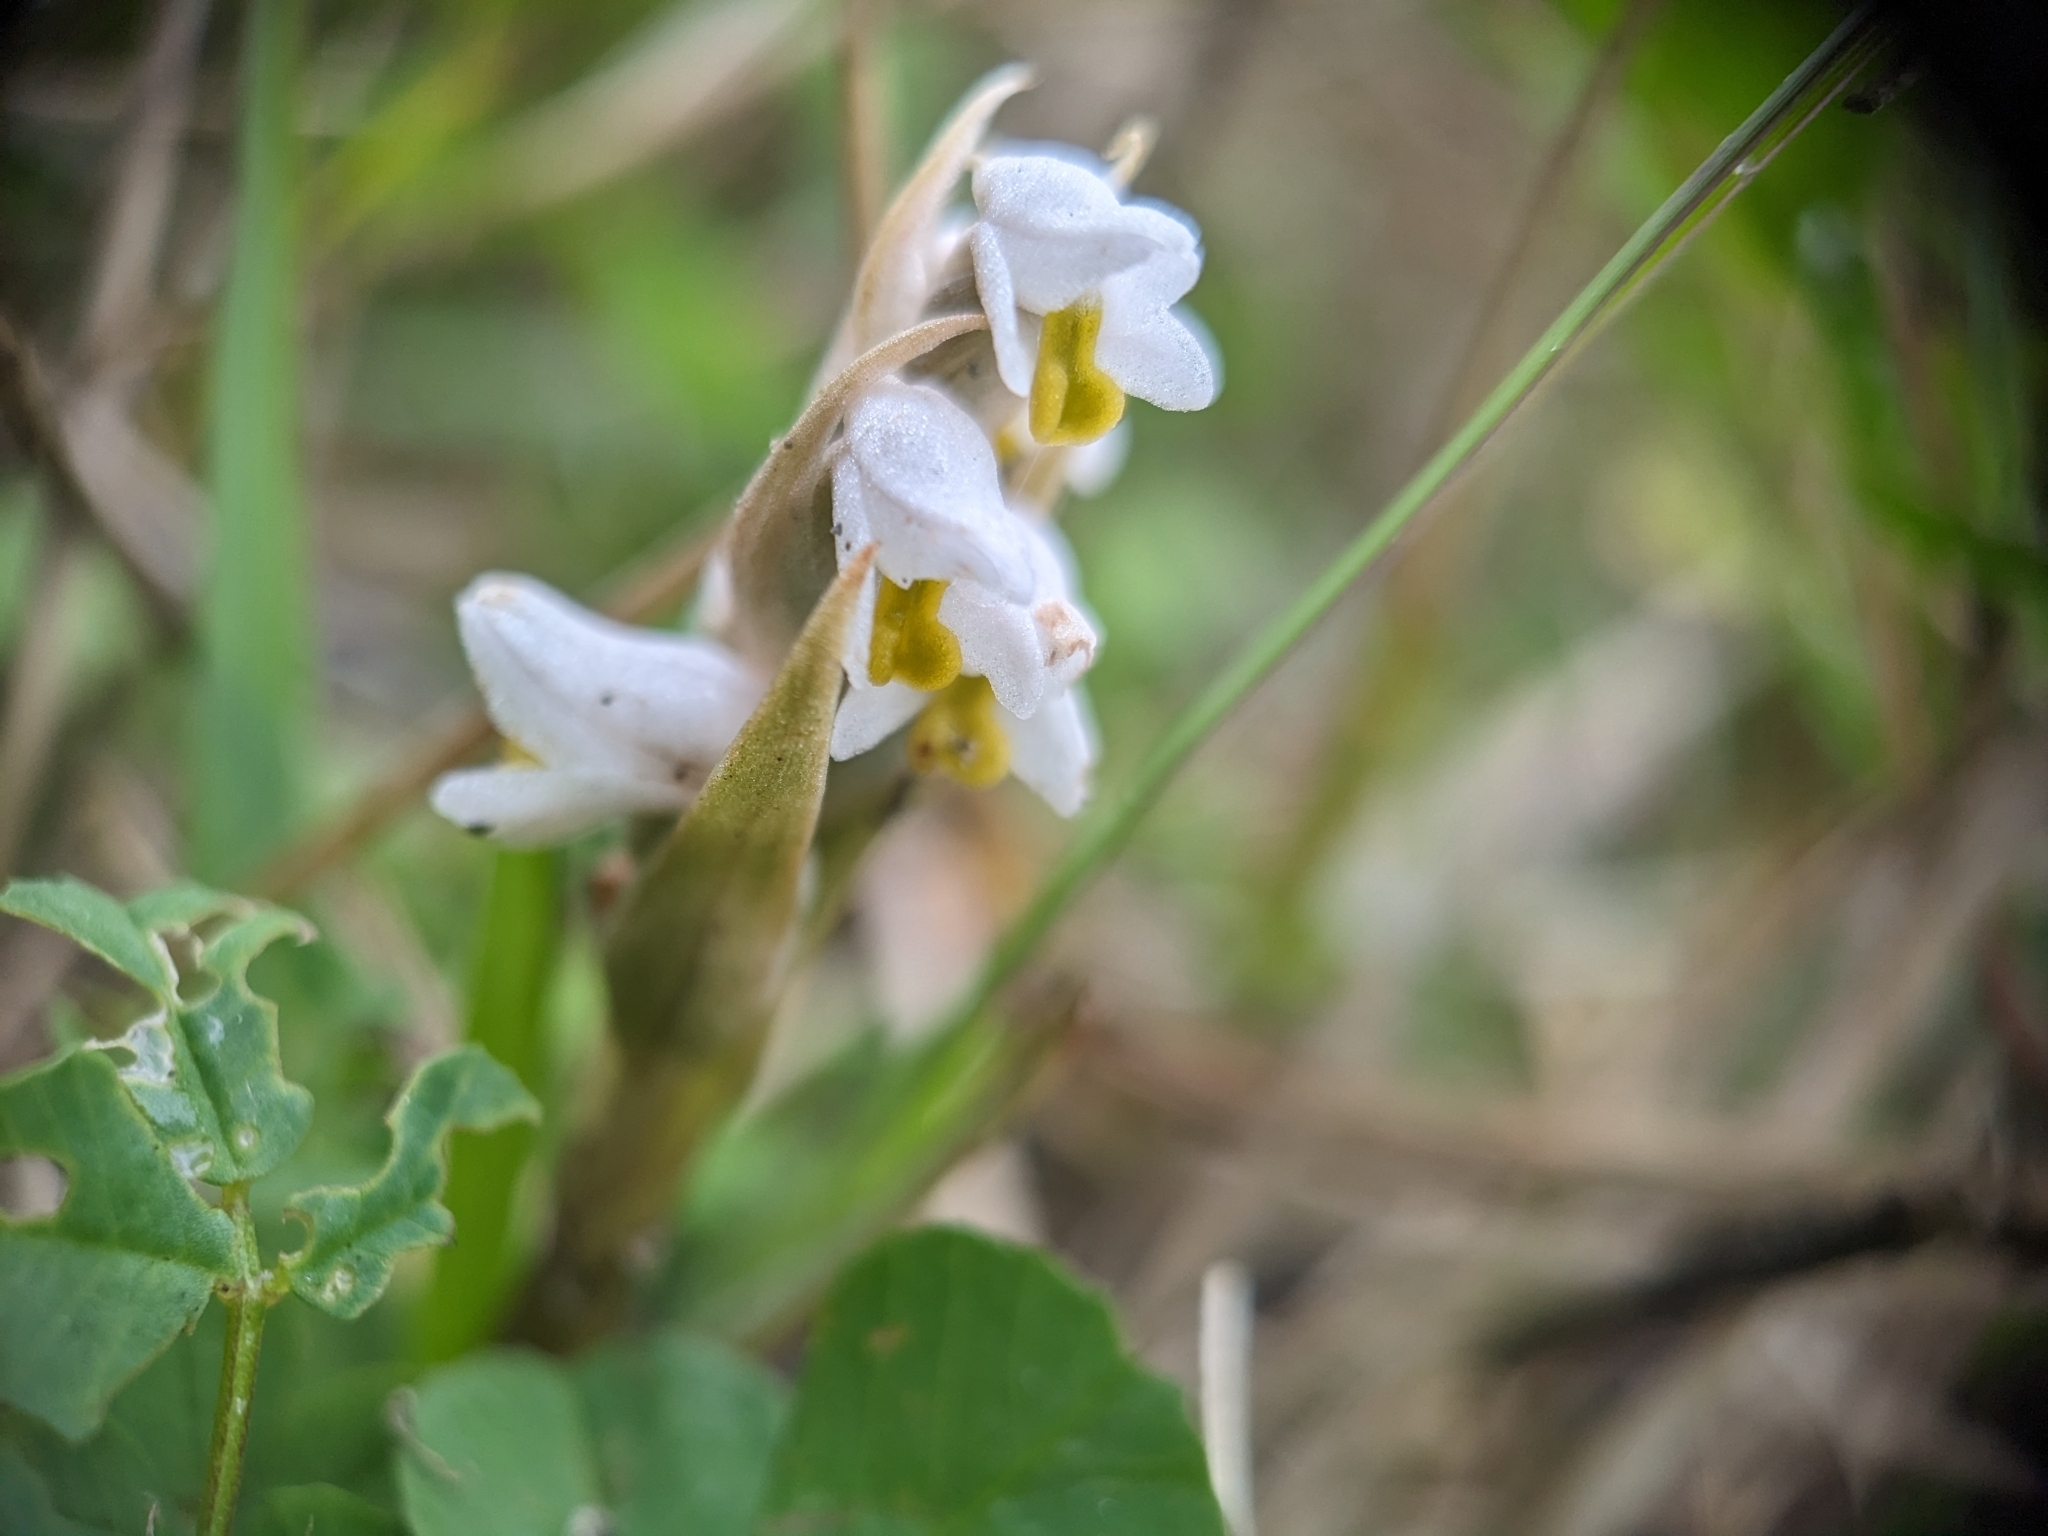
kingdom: Plantae
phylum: Tracheophyta
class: Liliopsida
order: Asparagales
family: Orchidaceae
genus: Zeuxine
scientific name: Zeuxine strateumatica
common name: Soldier's orchid
